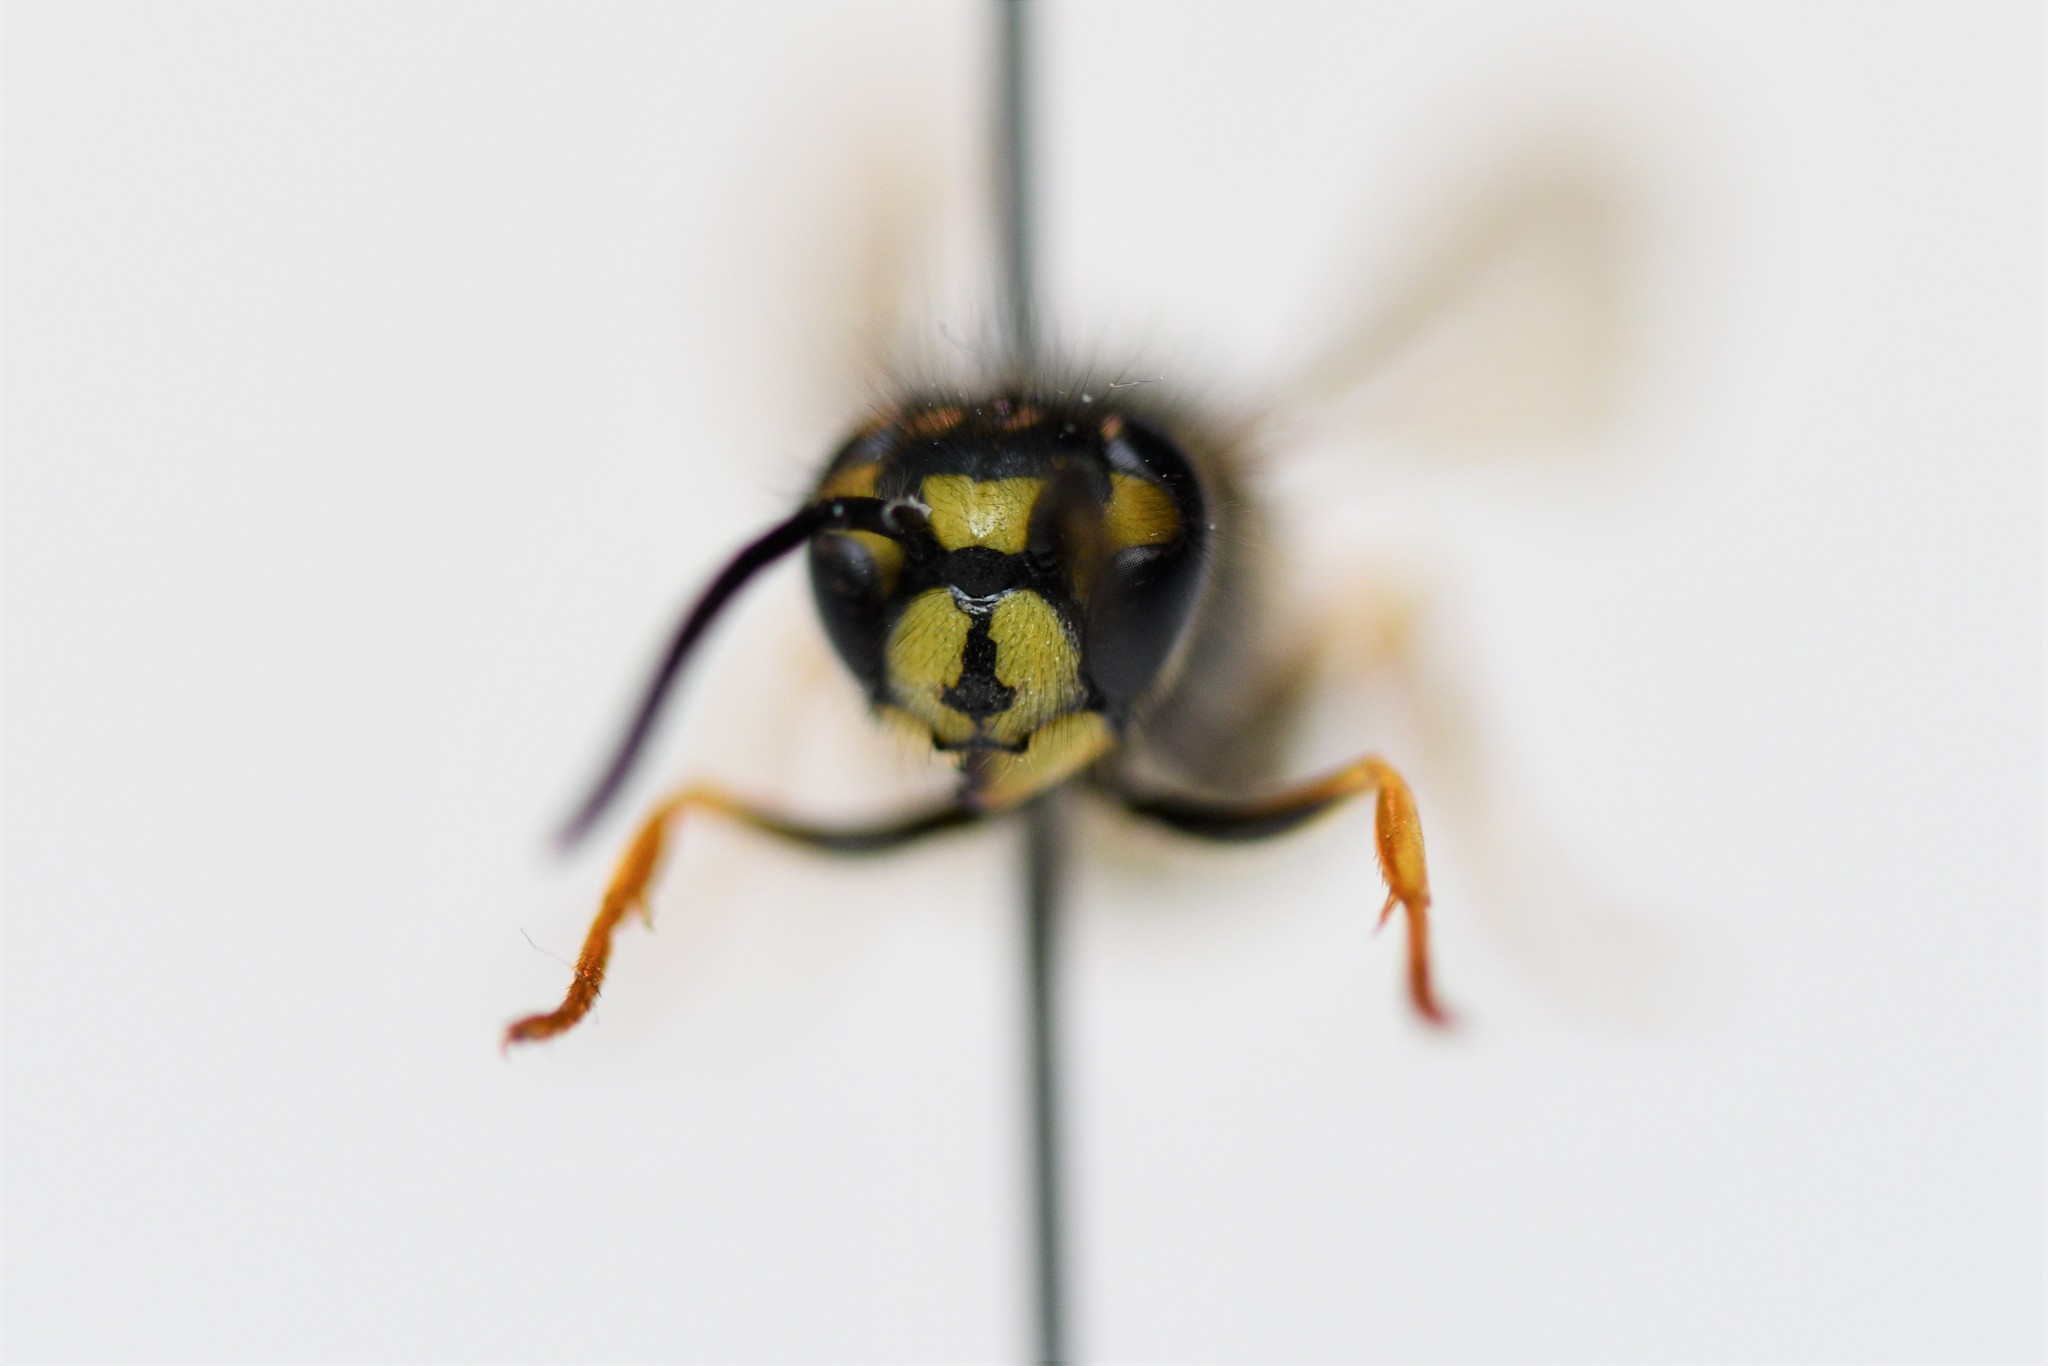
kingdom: Animalia
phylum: Arthropoda
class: Insecta
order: Hymenoptera
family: Vespidae
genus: Vespula
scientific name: Vespula vulgaris
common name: Common wasp
